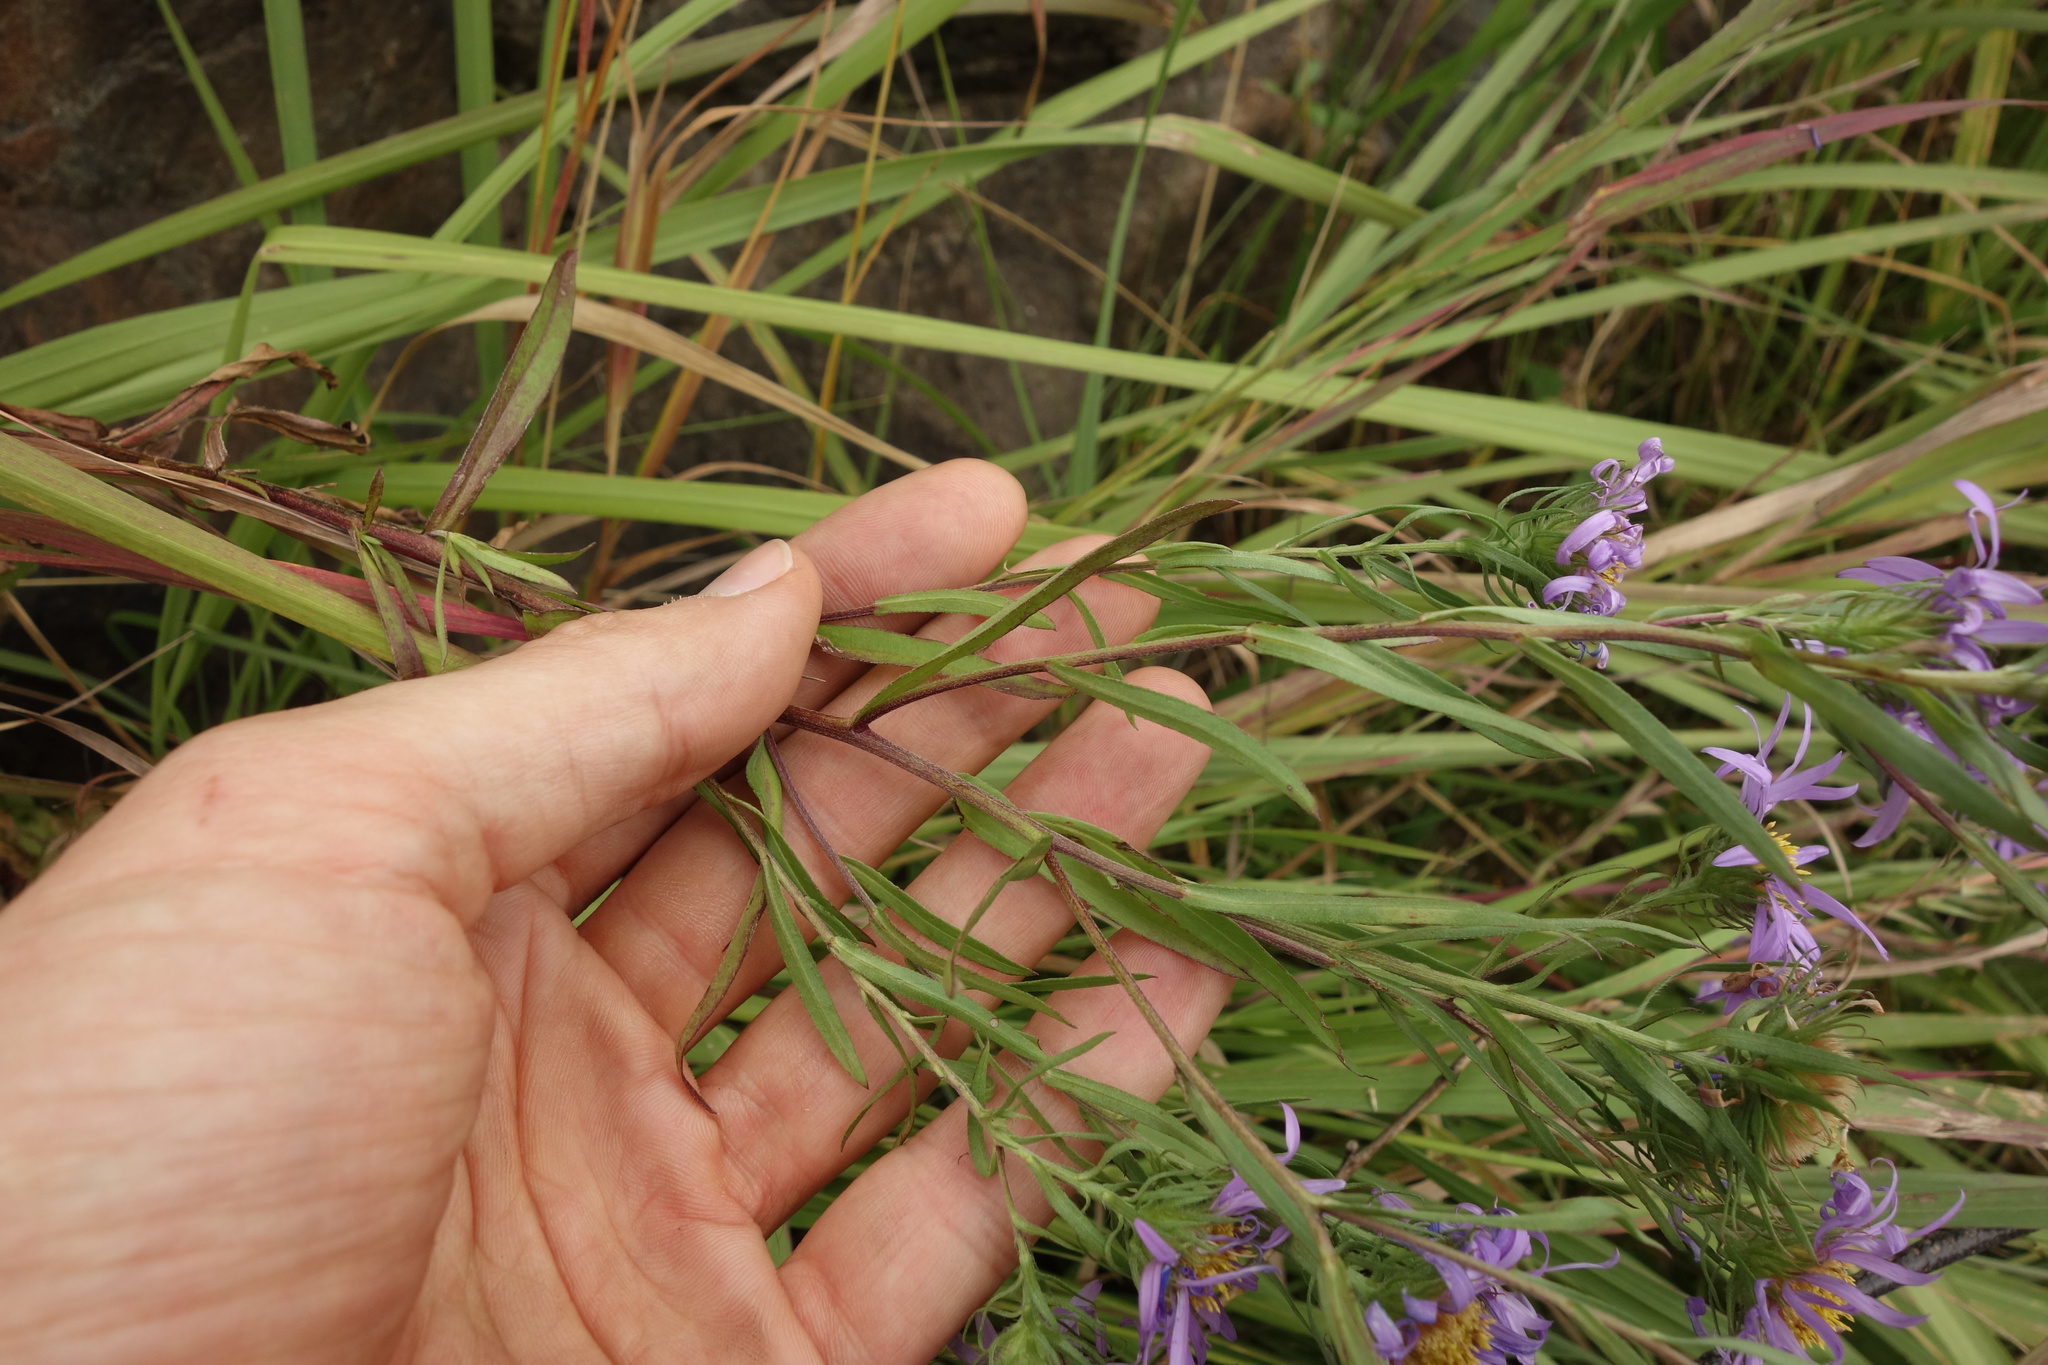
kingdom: Plantae
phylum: Tracheophyta
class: Magnoliopsida
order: Asterales
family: Asteraceae
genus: Aster
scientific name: Aster biennis
